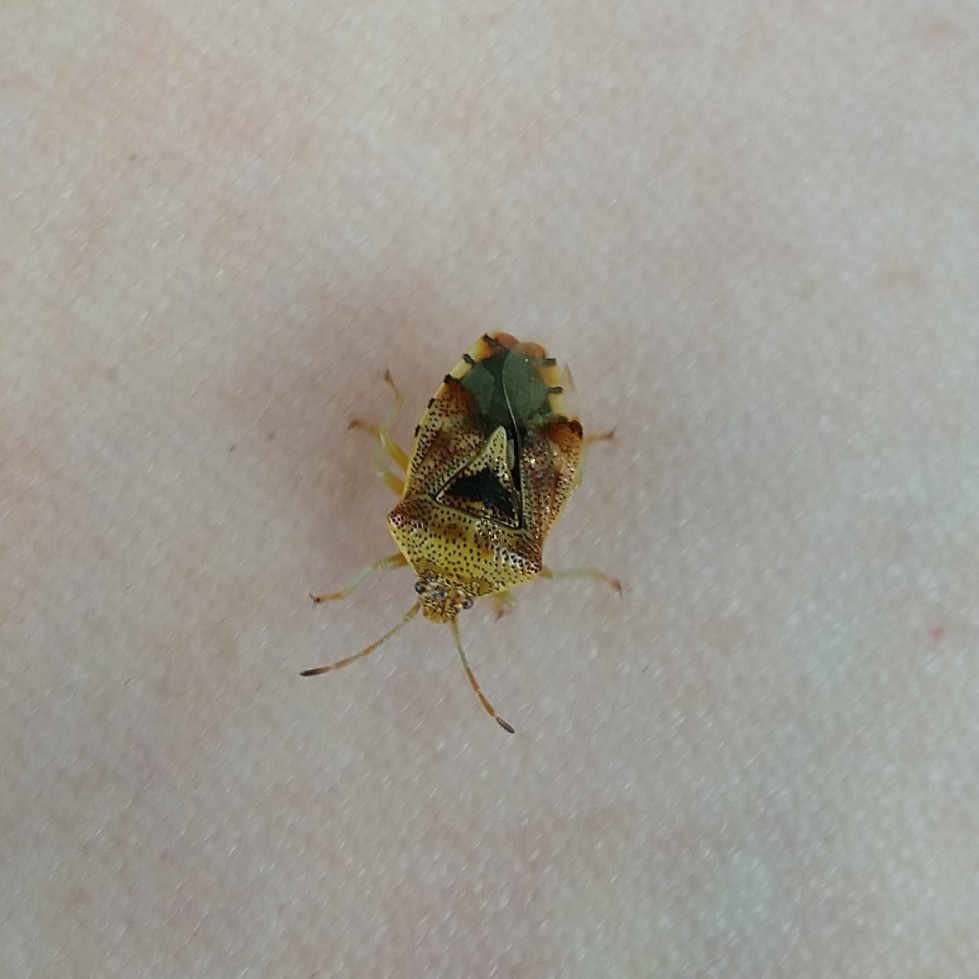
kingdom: Animalia
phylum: Arthropoda
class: Insecta
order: Hemiptera
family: Acanthosomatidae
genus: Elasmucha
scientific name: Elasmucha grisea
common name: Parent bug
